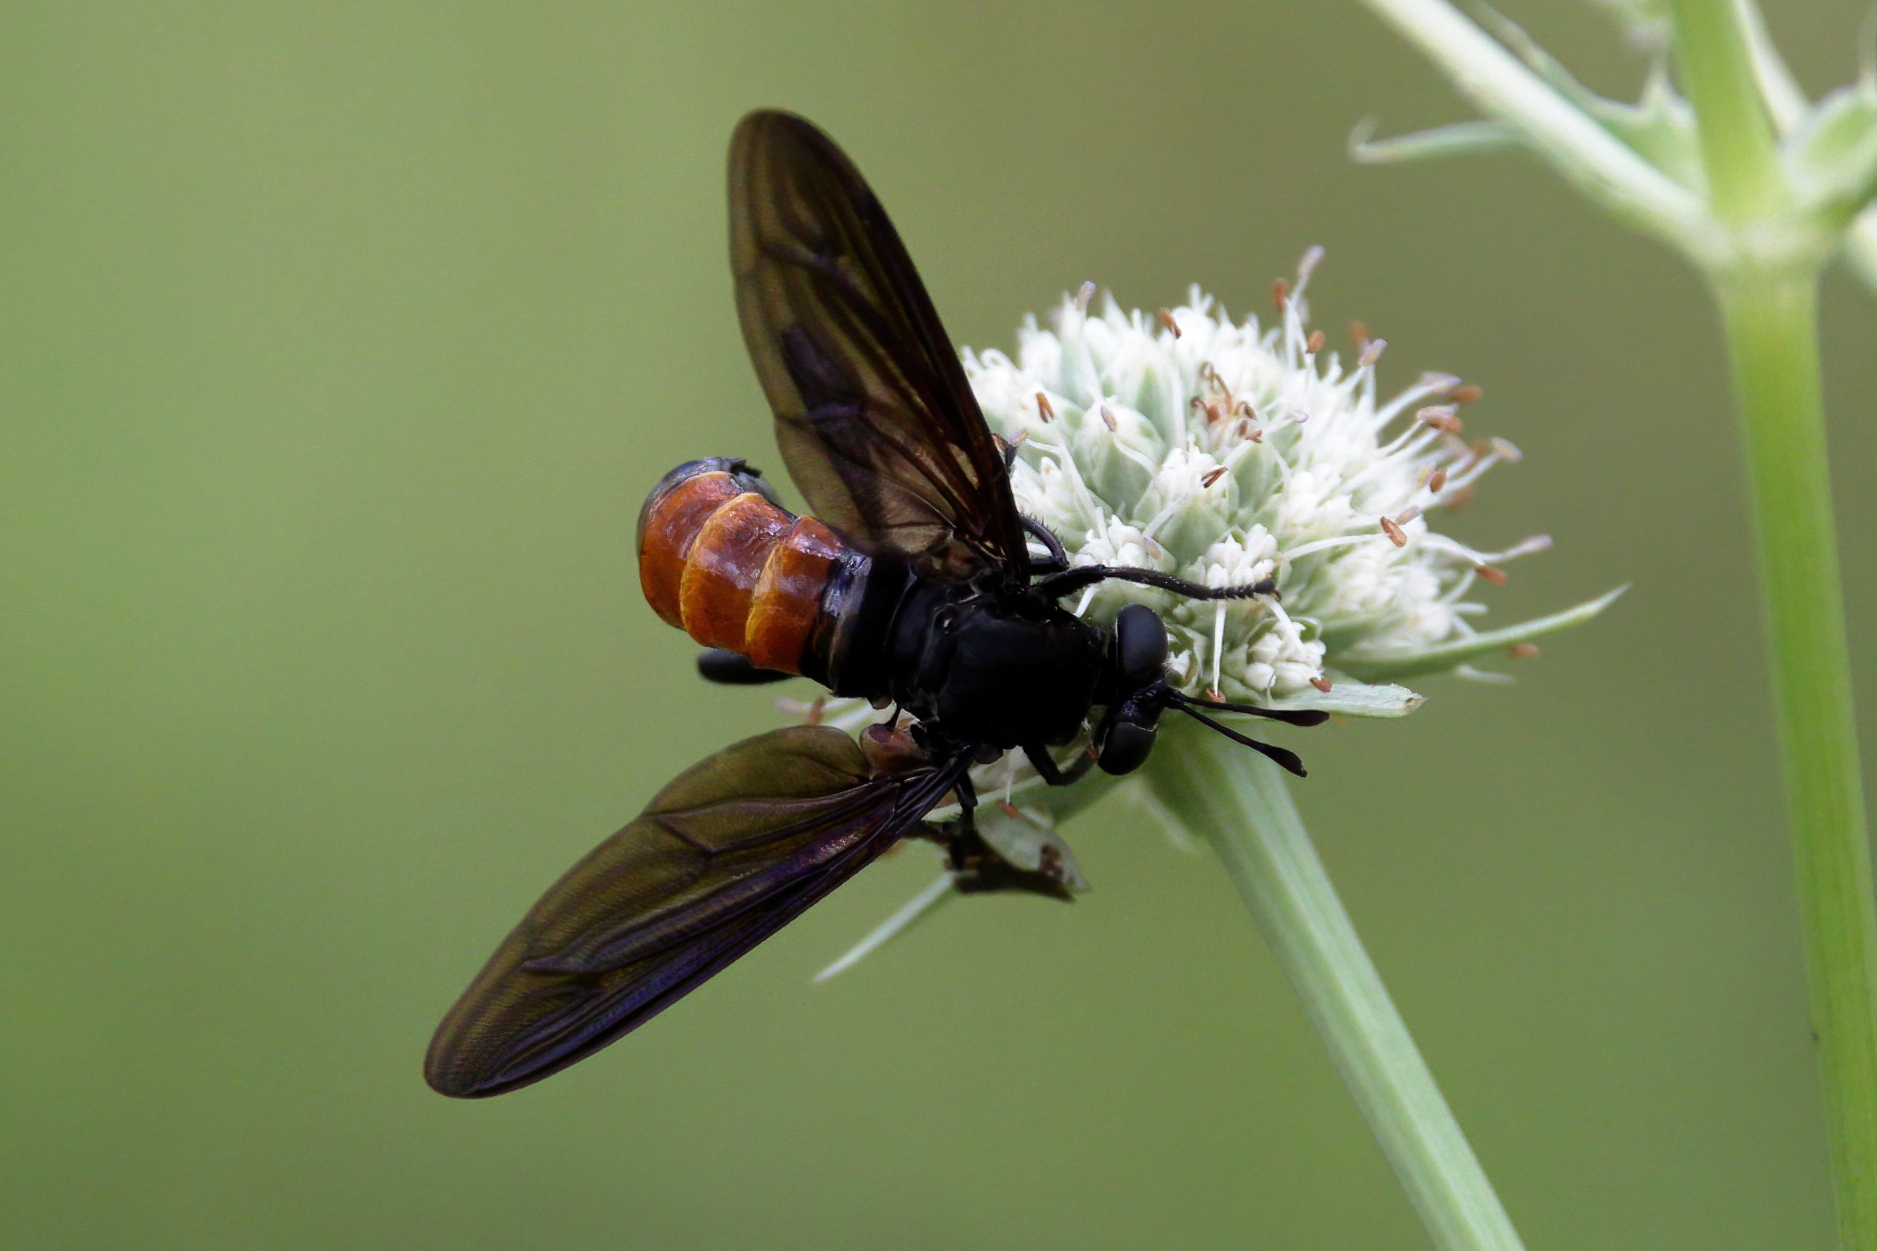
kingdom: Animalia
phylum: Arthropoda
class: Insecta
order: Diptera
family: Mydidae
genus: Mydas
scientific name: Mydas fulvifrons
